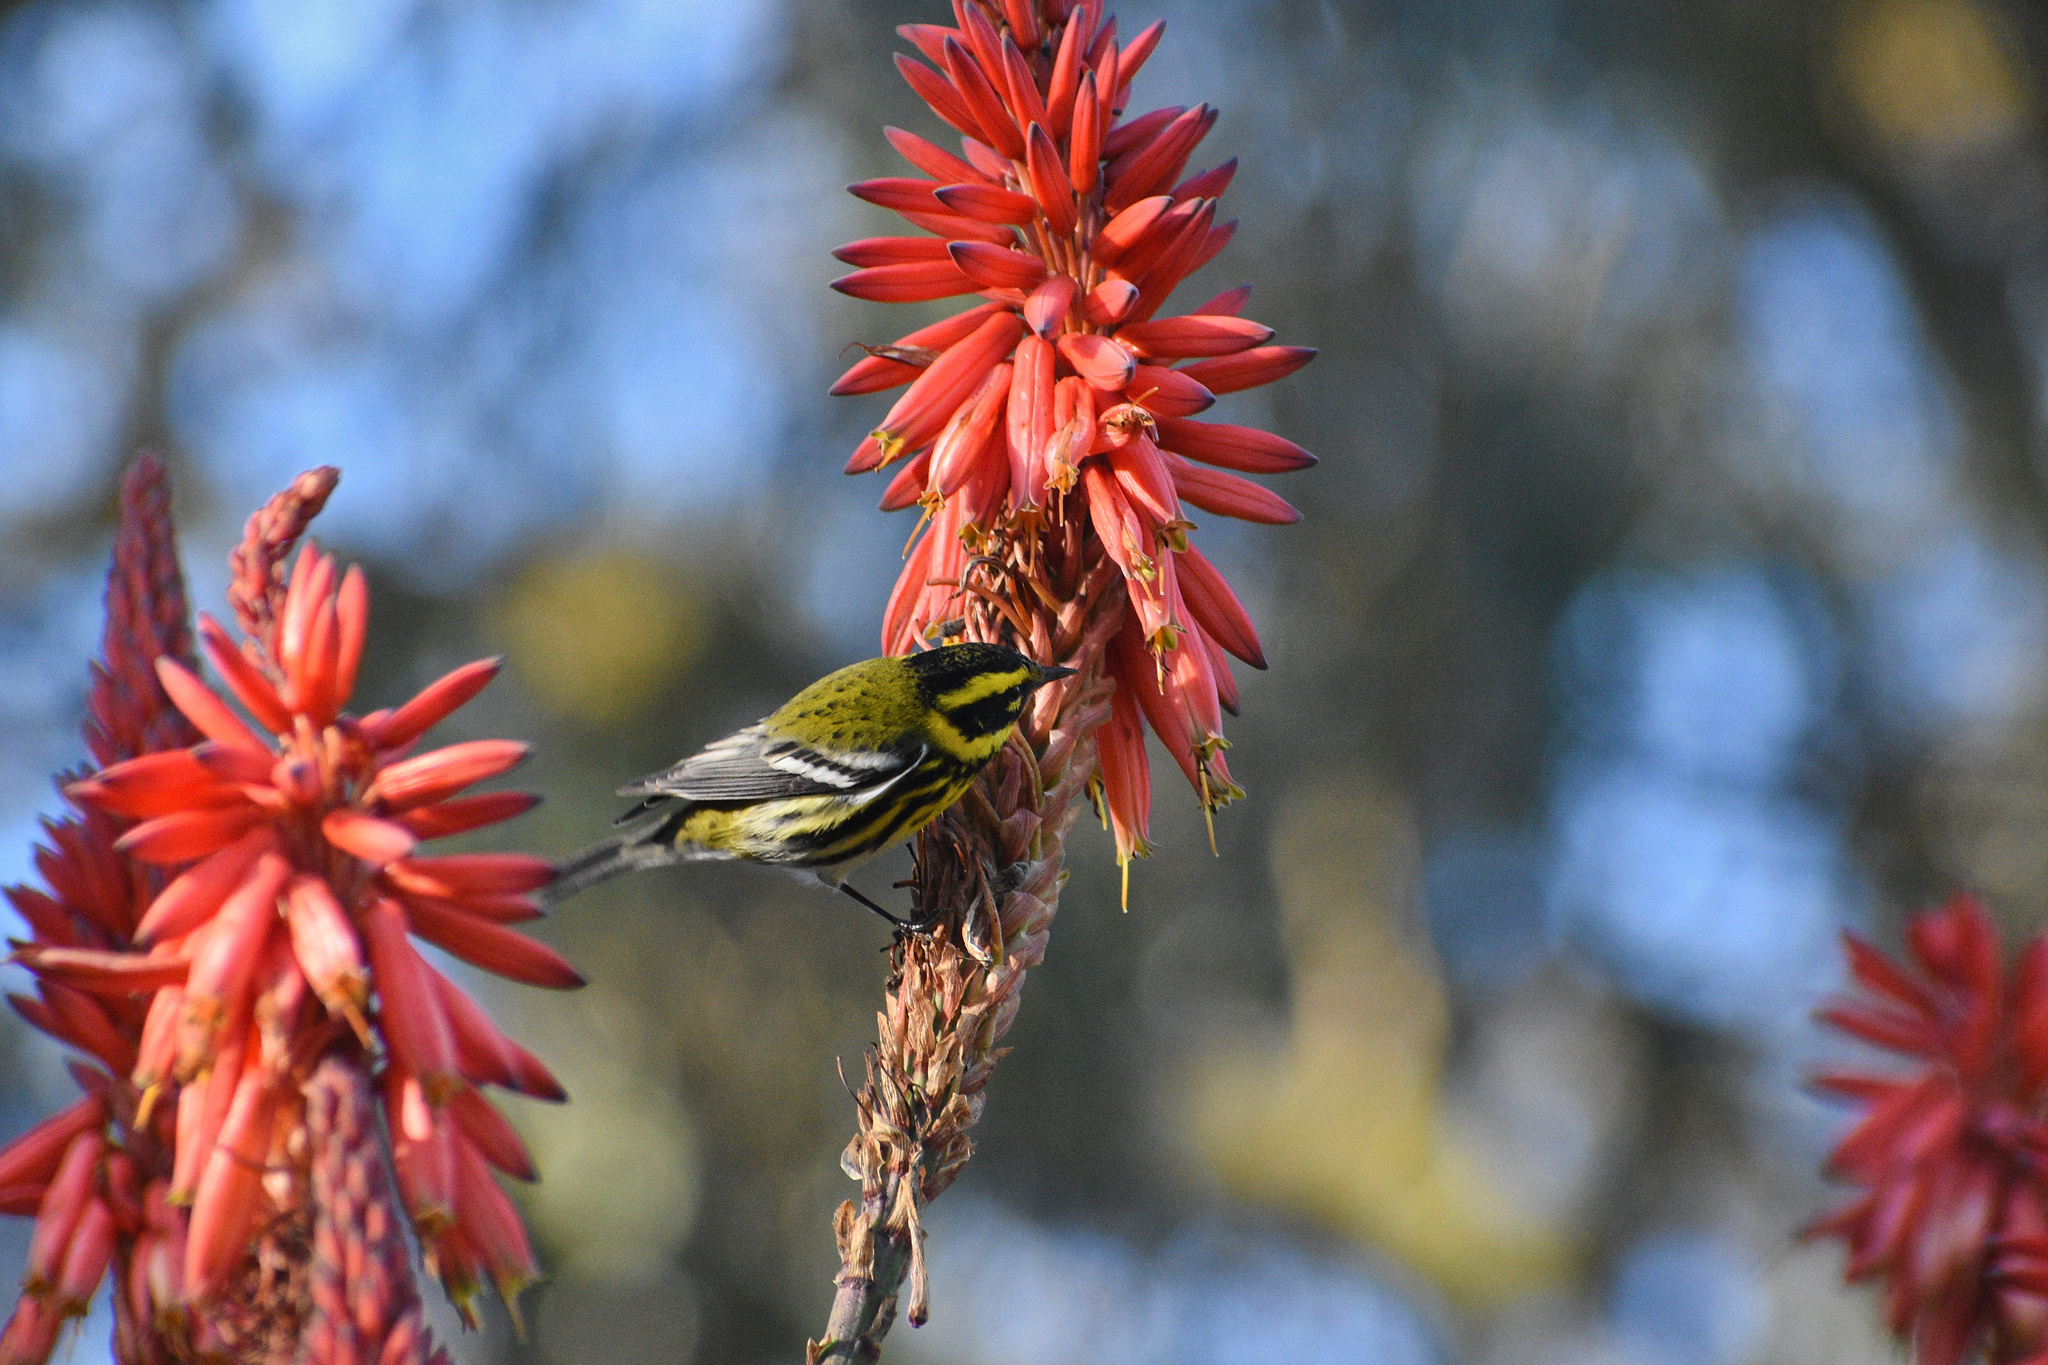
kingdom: Animalia
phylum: Chordata
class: Aves
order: Passeriformes
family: Parulidae
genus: Setophaga
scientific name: Setophaga townsendi
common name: Townsend's warbler
